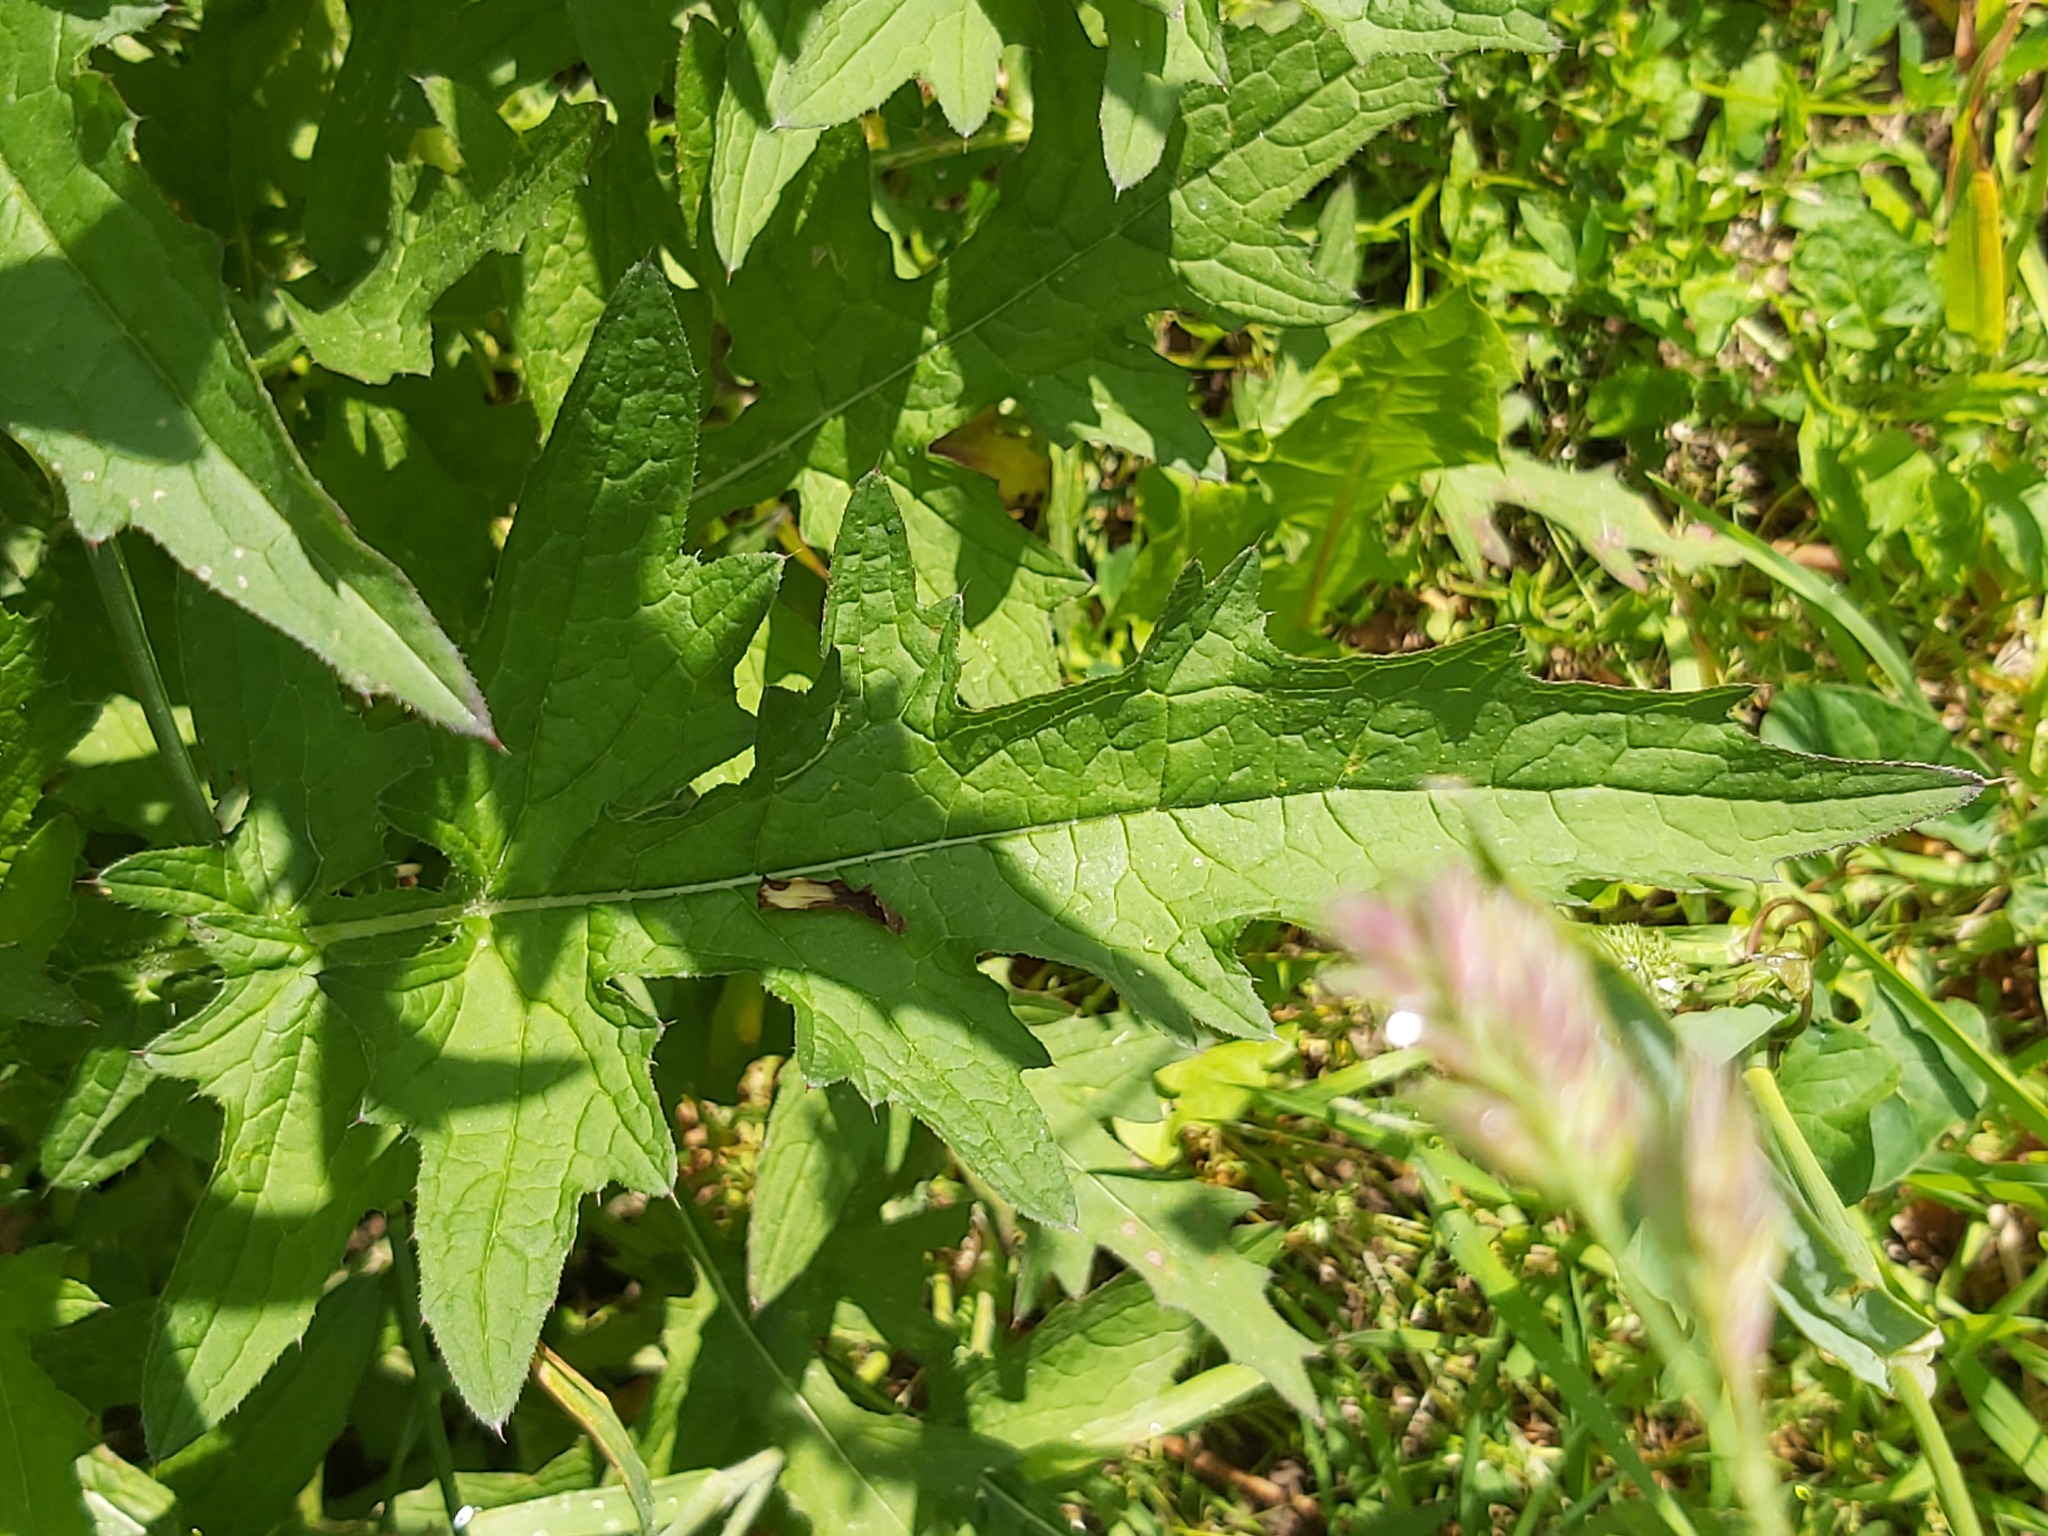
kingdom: Plantae
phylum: Tracheophyta
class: Magnoliopsida
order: Asterales
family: Asteraceae
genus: Carduus
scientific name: Carduus crispus
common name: Welted thistle
